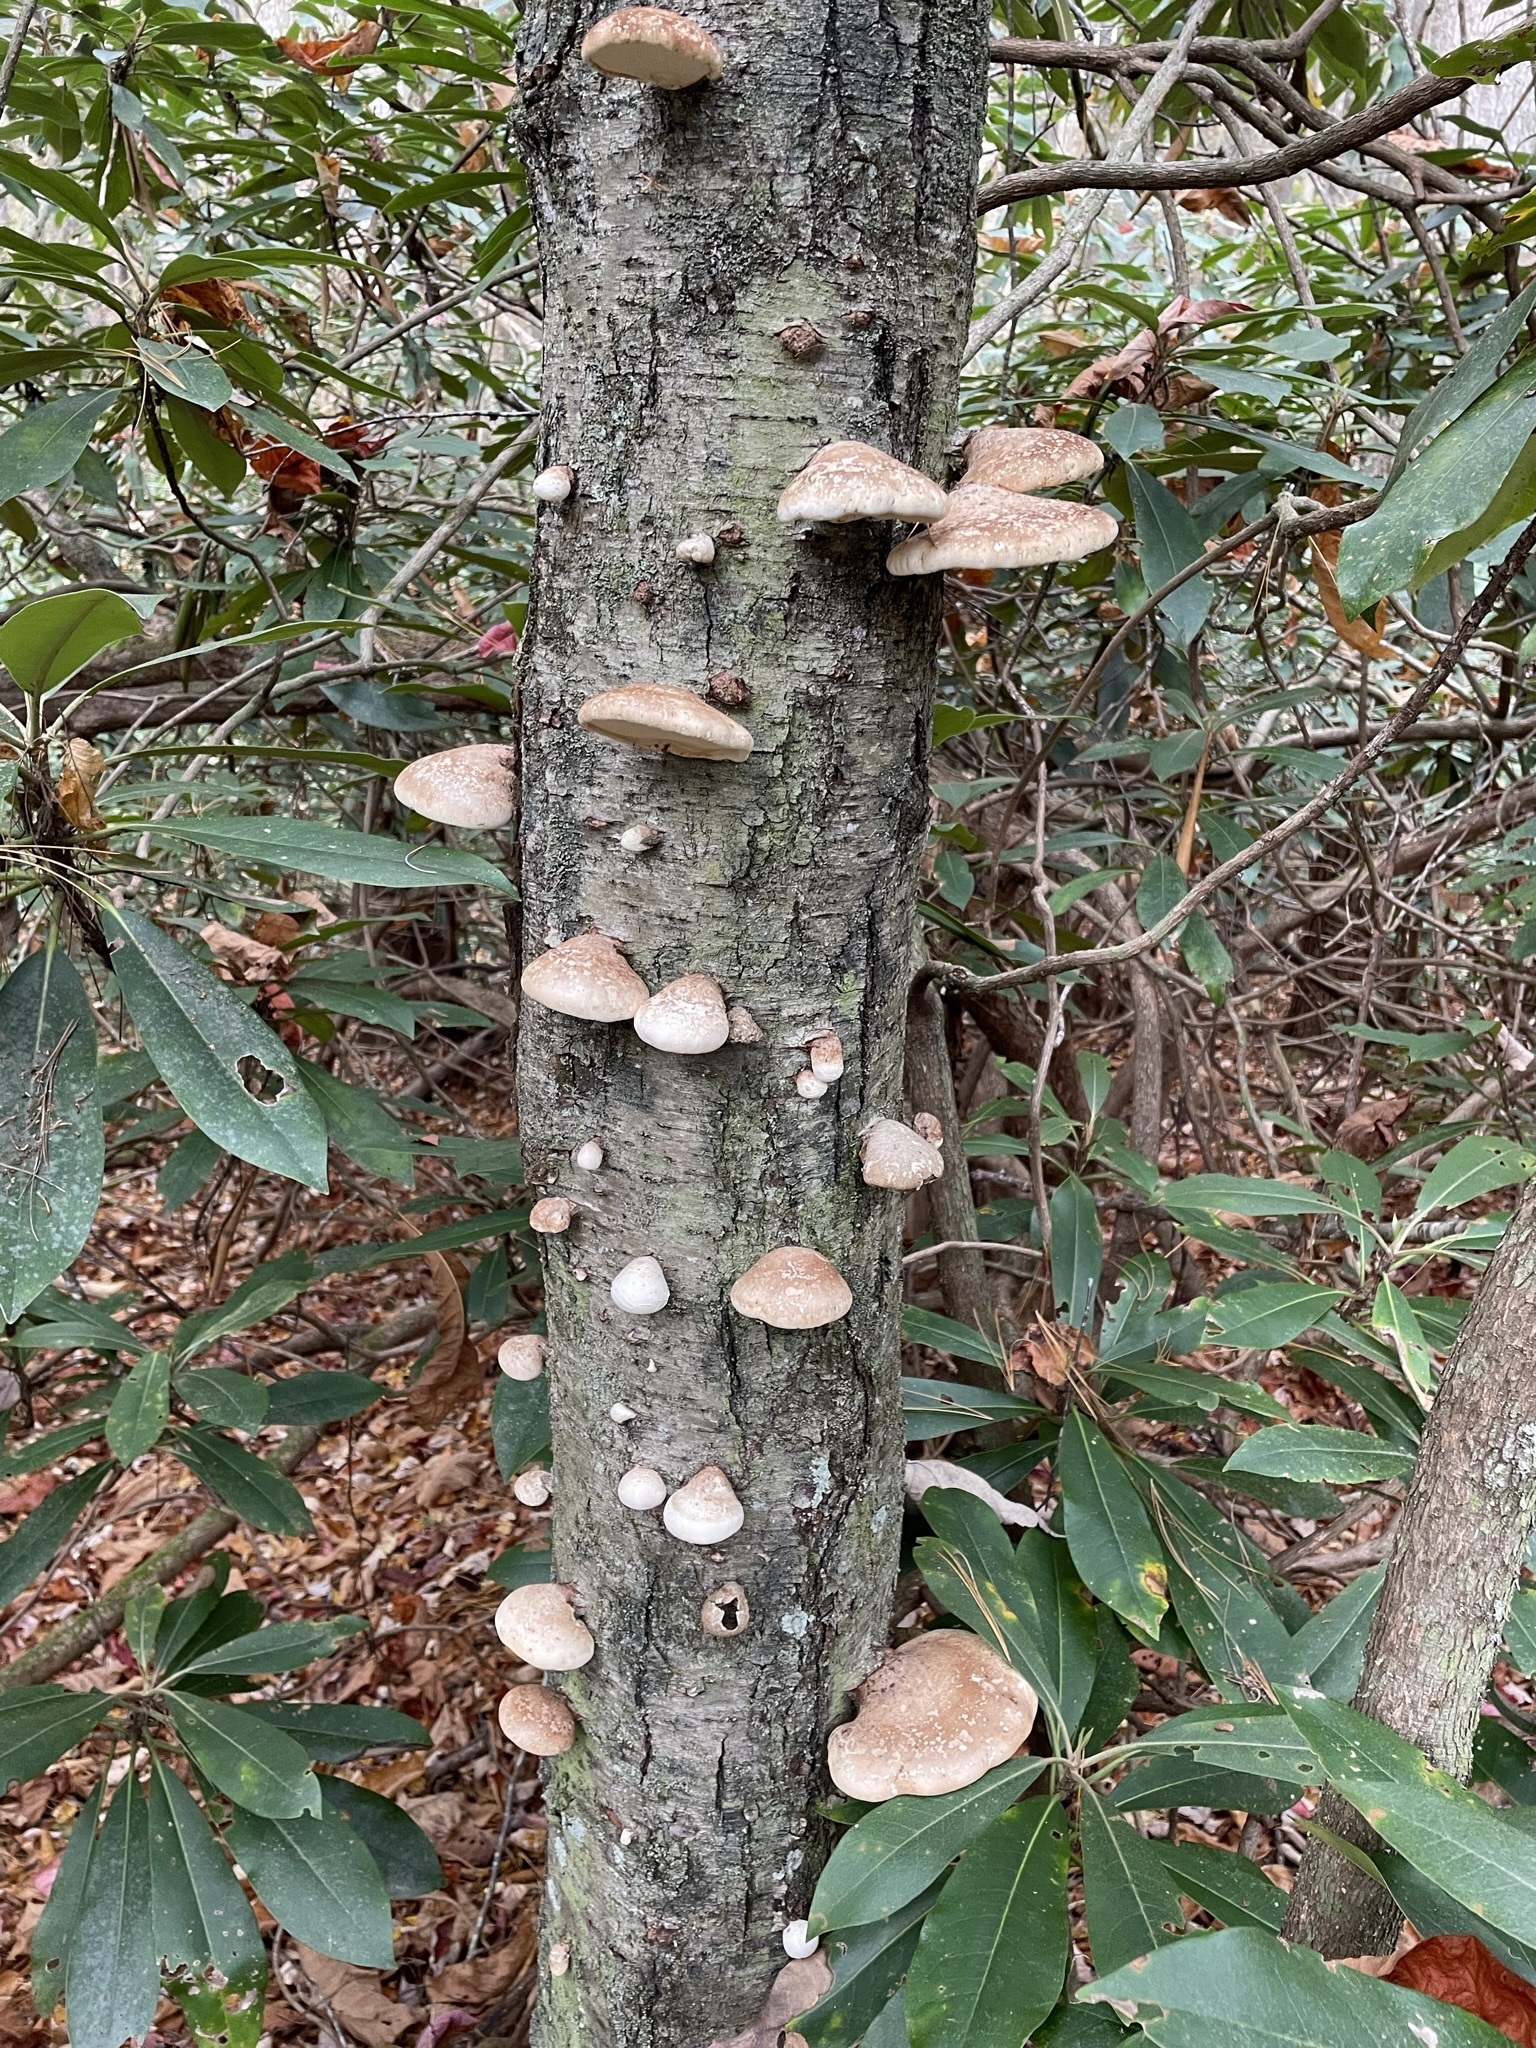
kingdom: Fungi
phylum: Basidiomycota
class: Agaricomycetes
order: Polyporales
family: Fomitopsidaceae
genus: Fomitopsis
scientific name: Fomitopsis betulina
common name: Birch polypore
